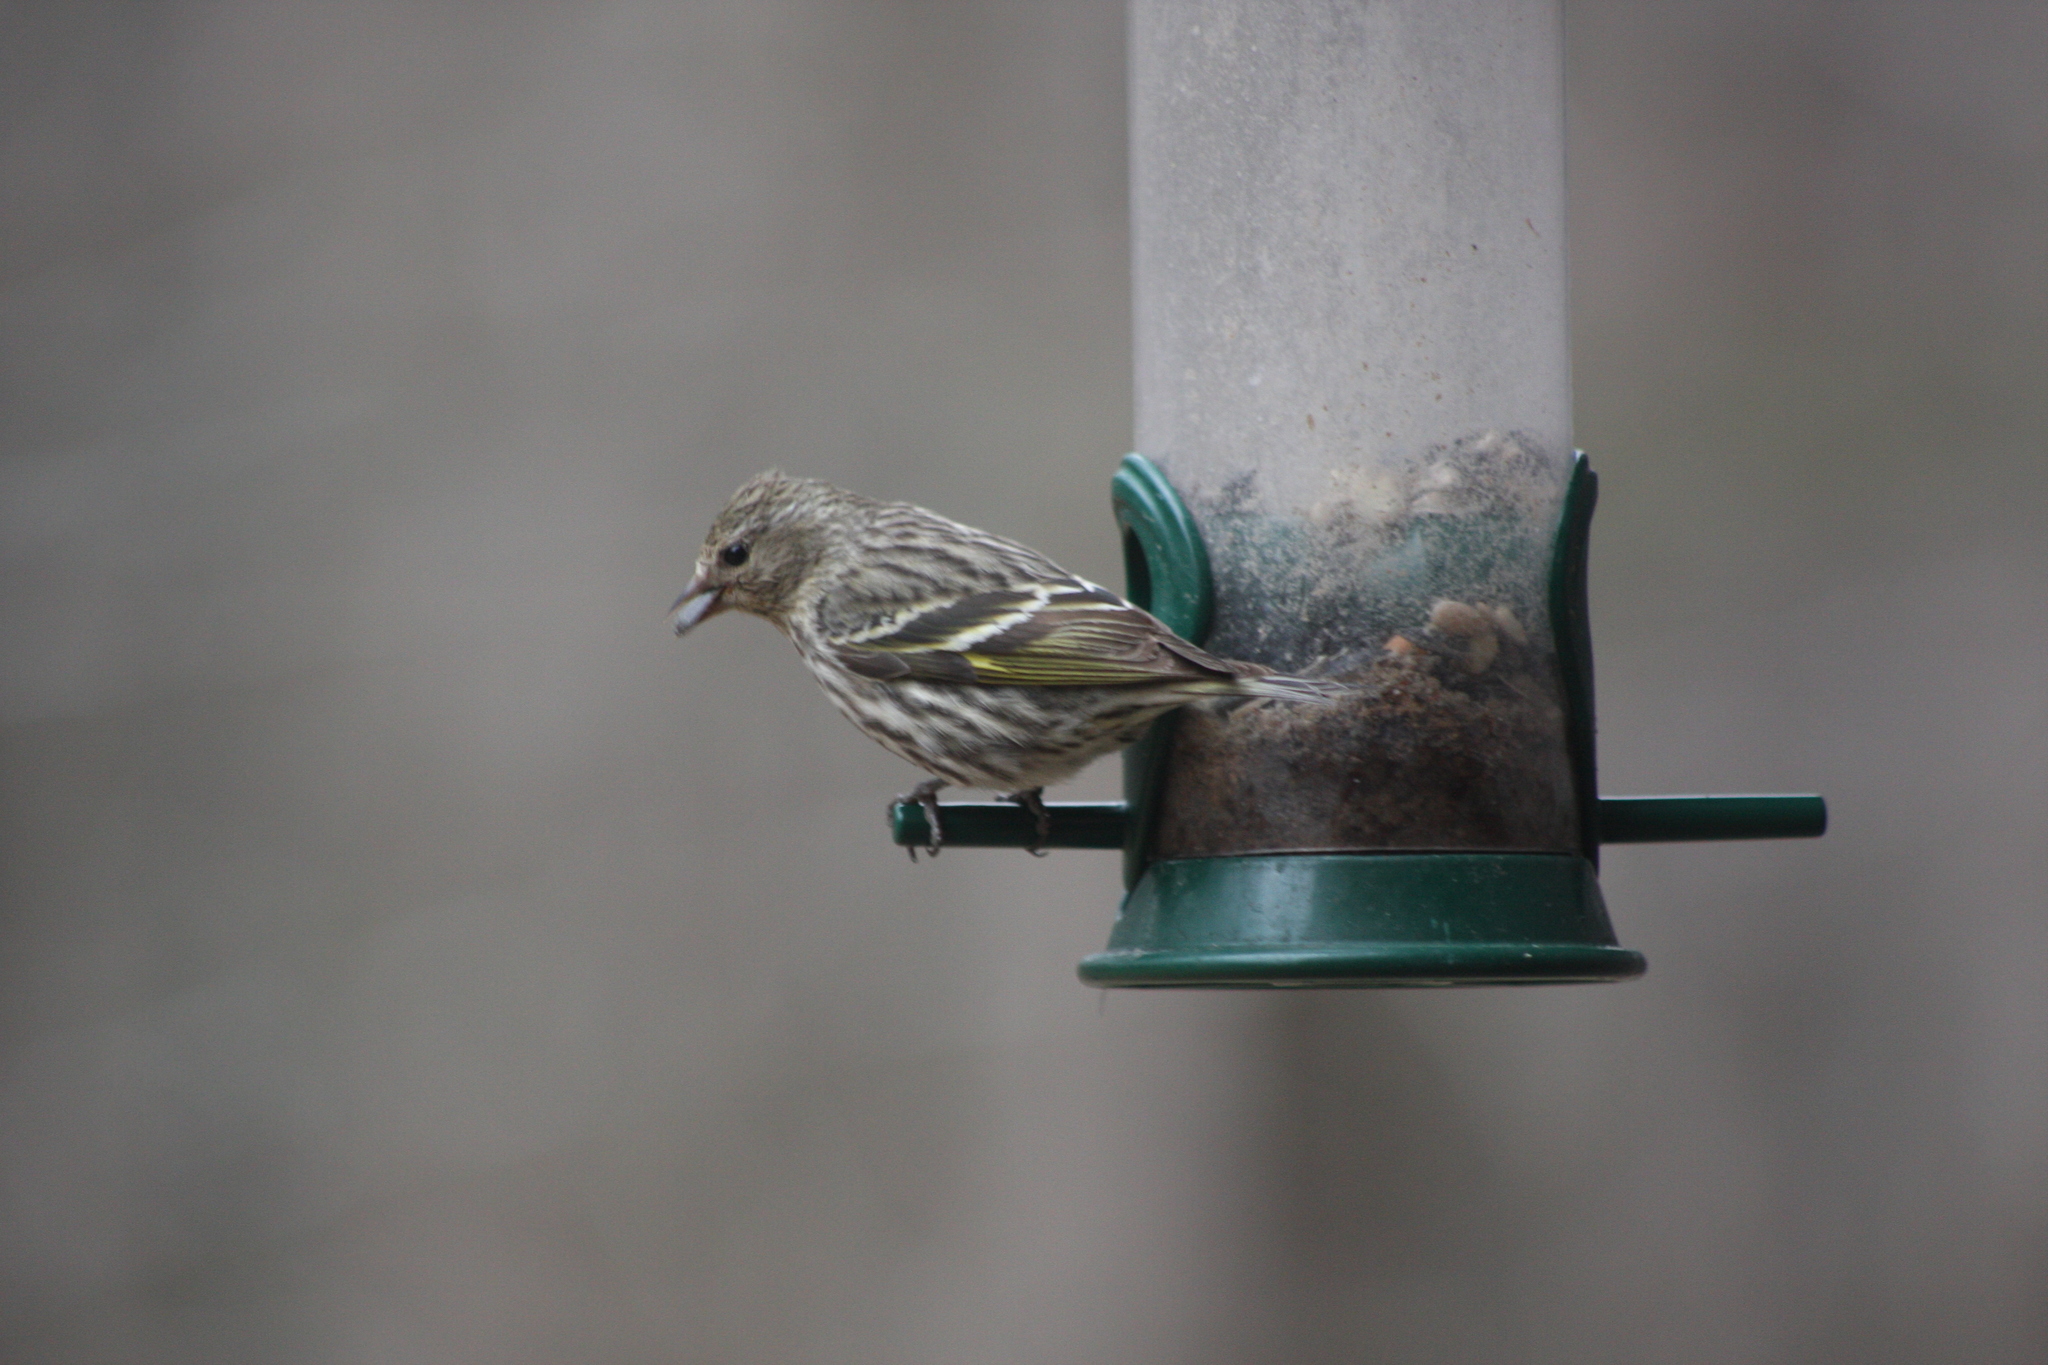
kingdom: Animalia
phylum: Chordata
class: Aves
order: Passeriformes
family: Fringillidae
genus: Spinus
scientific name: Spinus pinus
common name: Pine siskin
